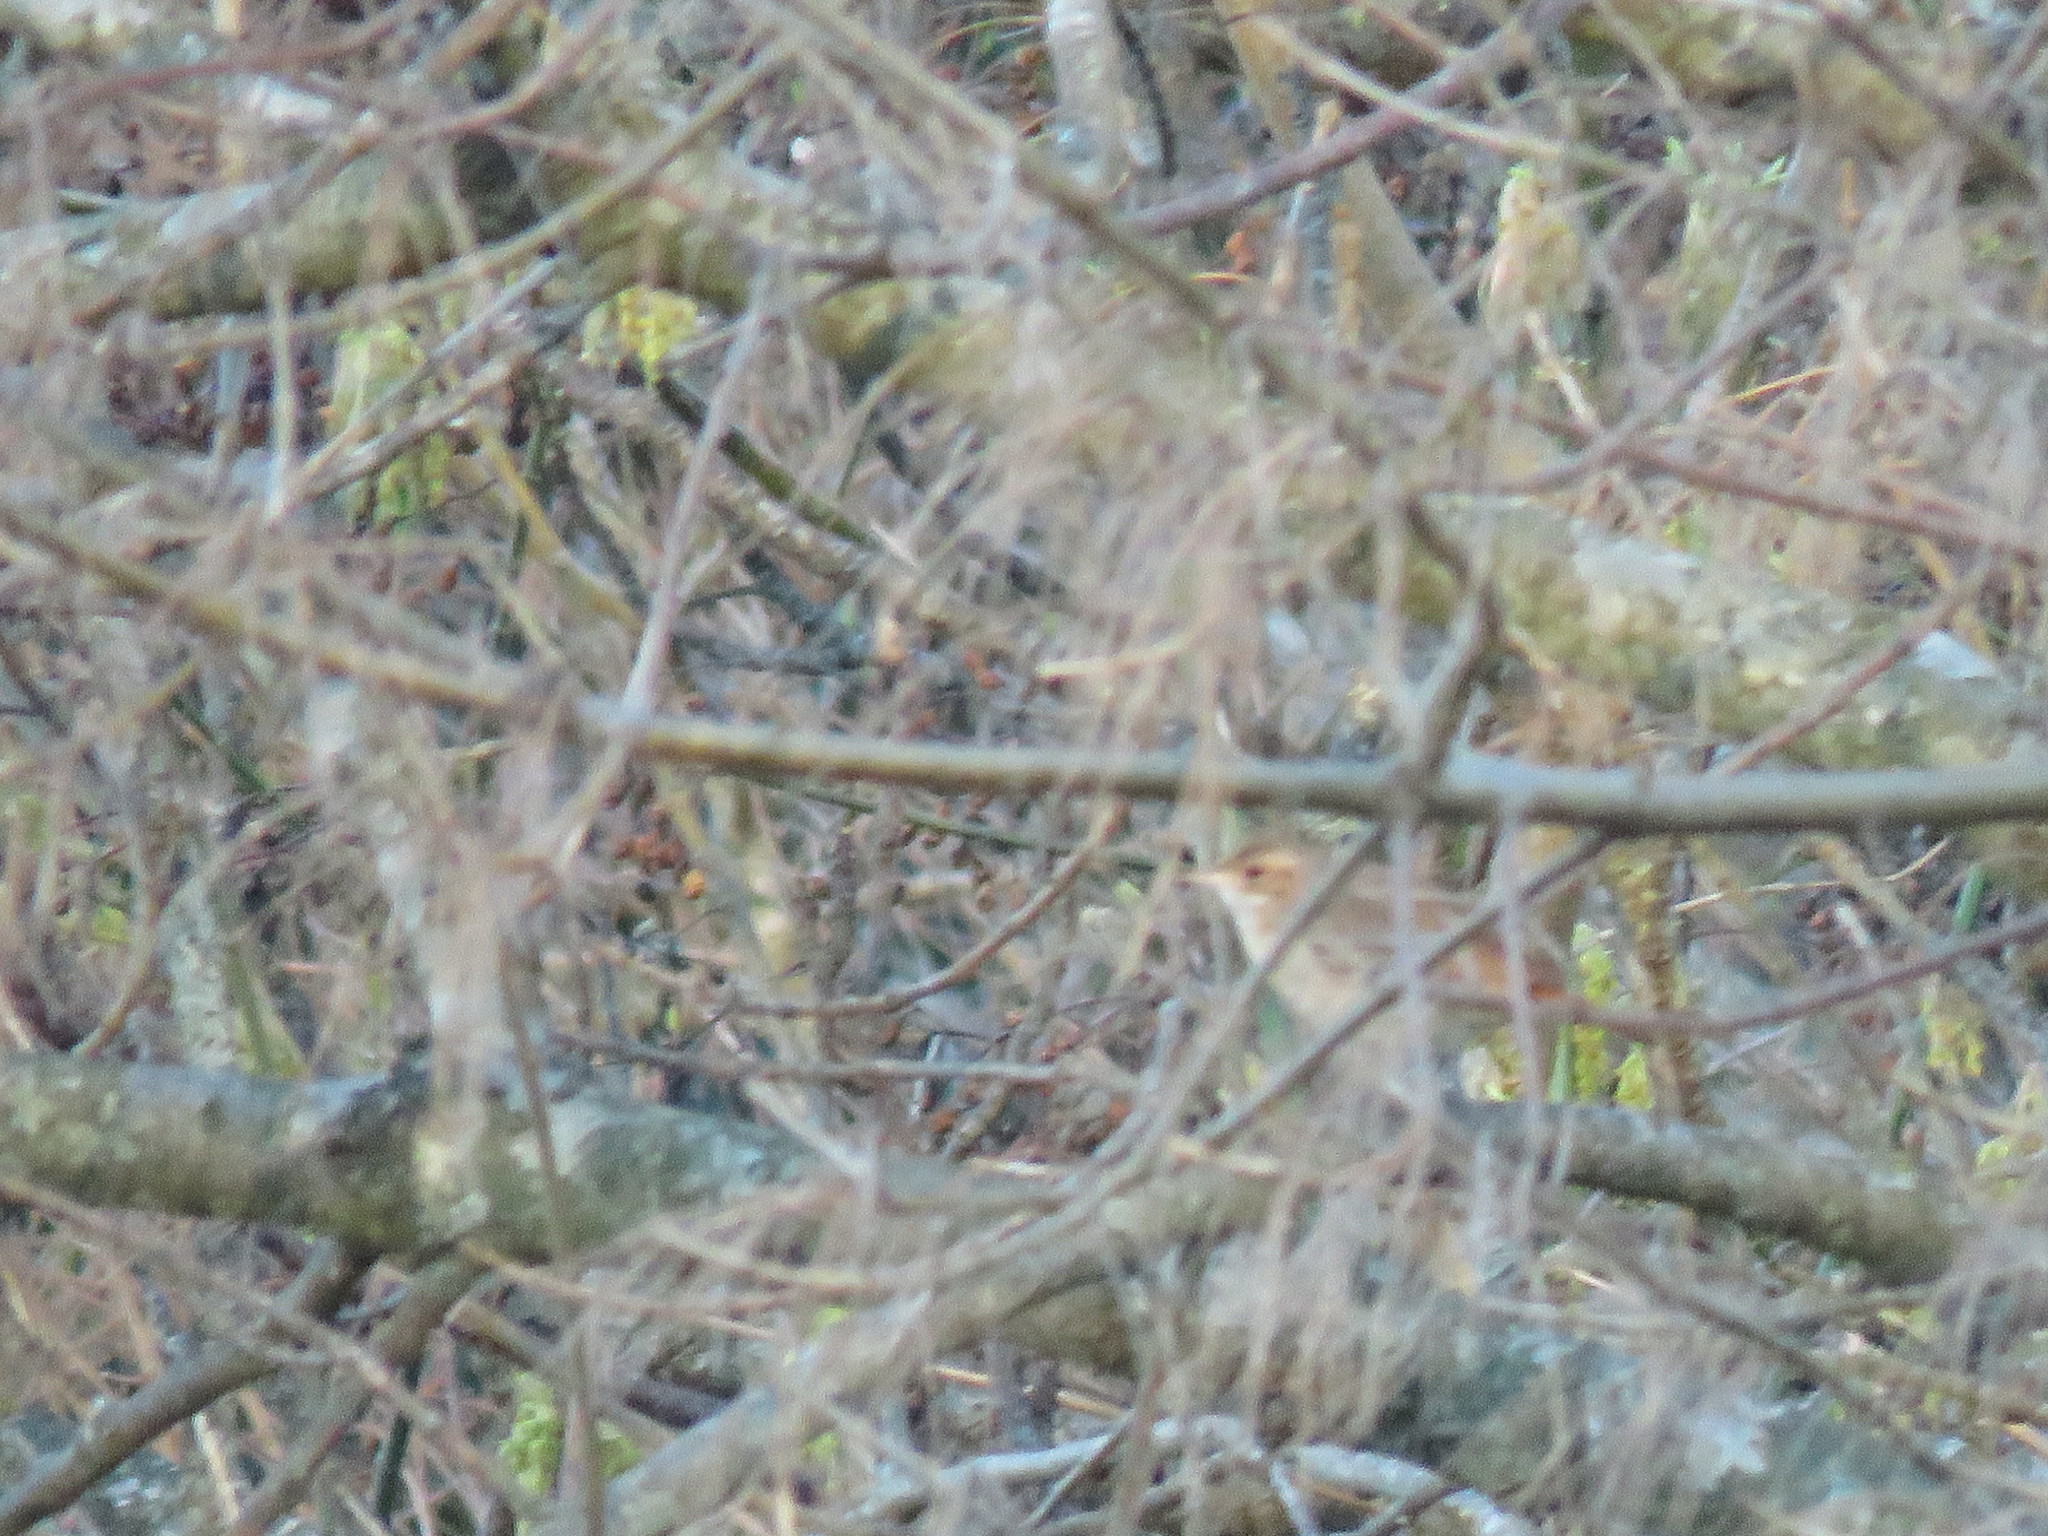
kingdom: Animalia
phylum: Chordata
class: Aves
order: Passeriformes
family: Furnariidae
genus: Furnarius
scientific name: Furnarius rufus
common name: Rufous hornero
